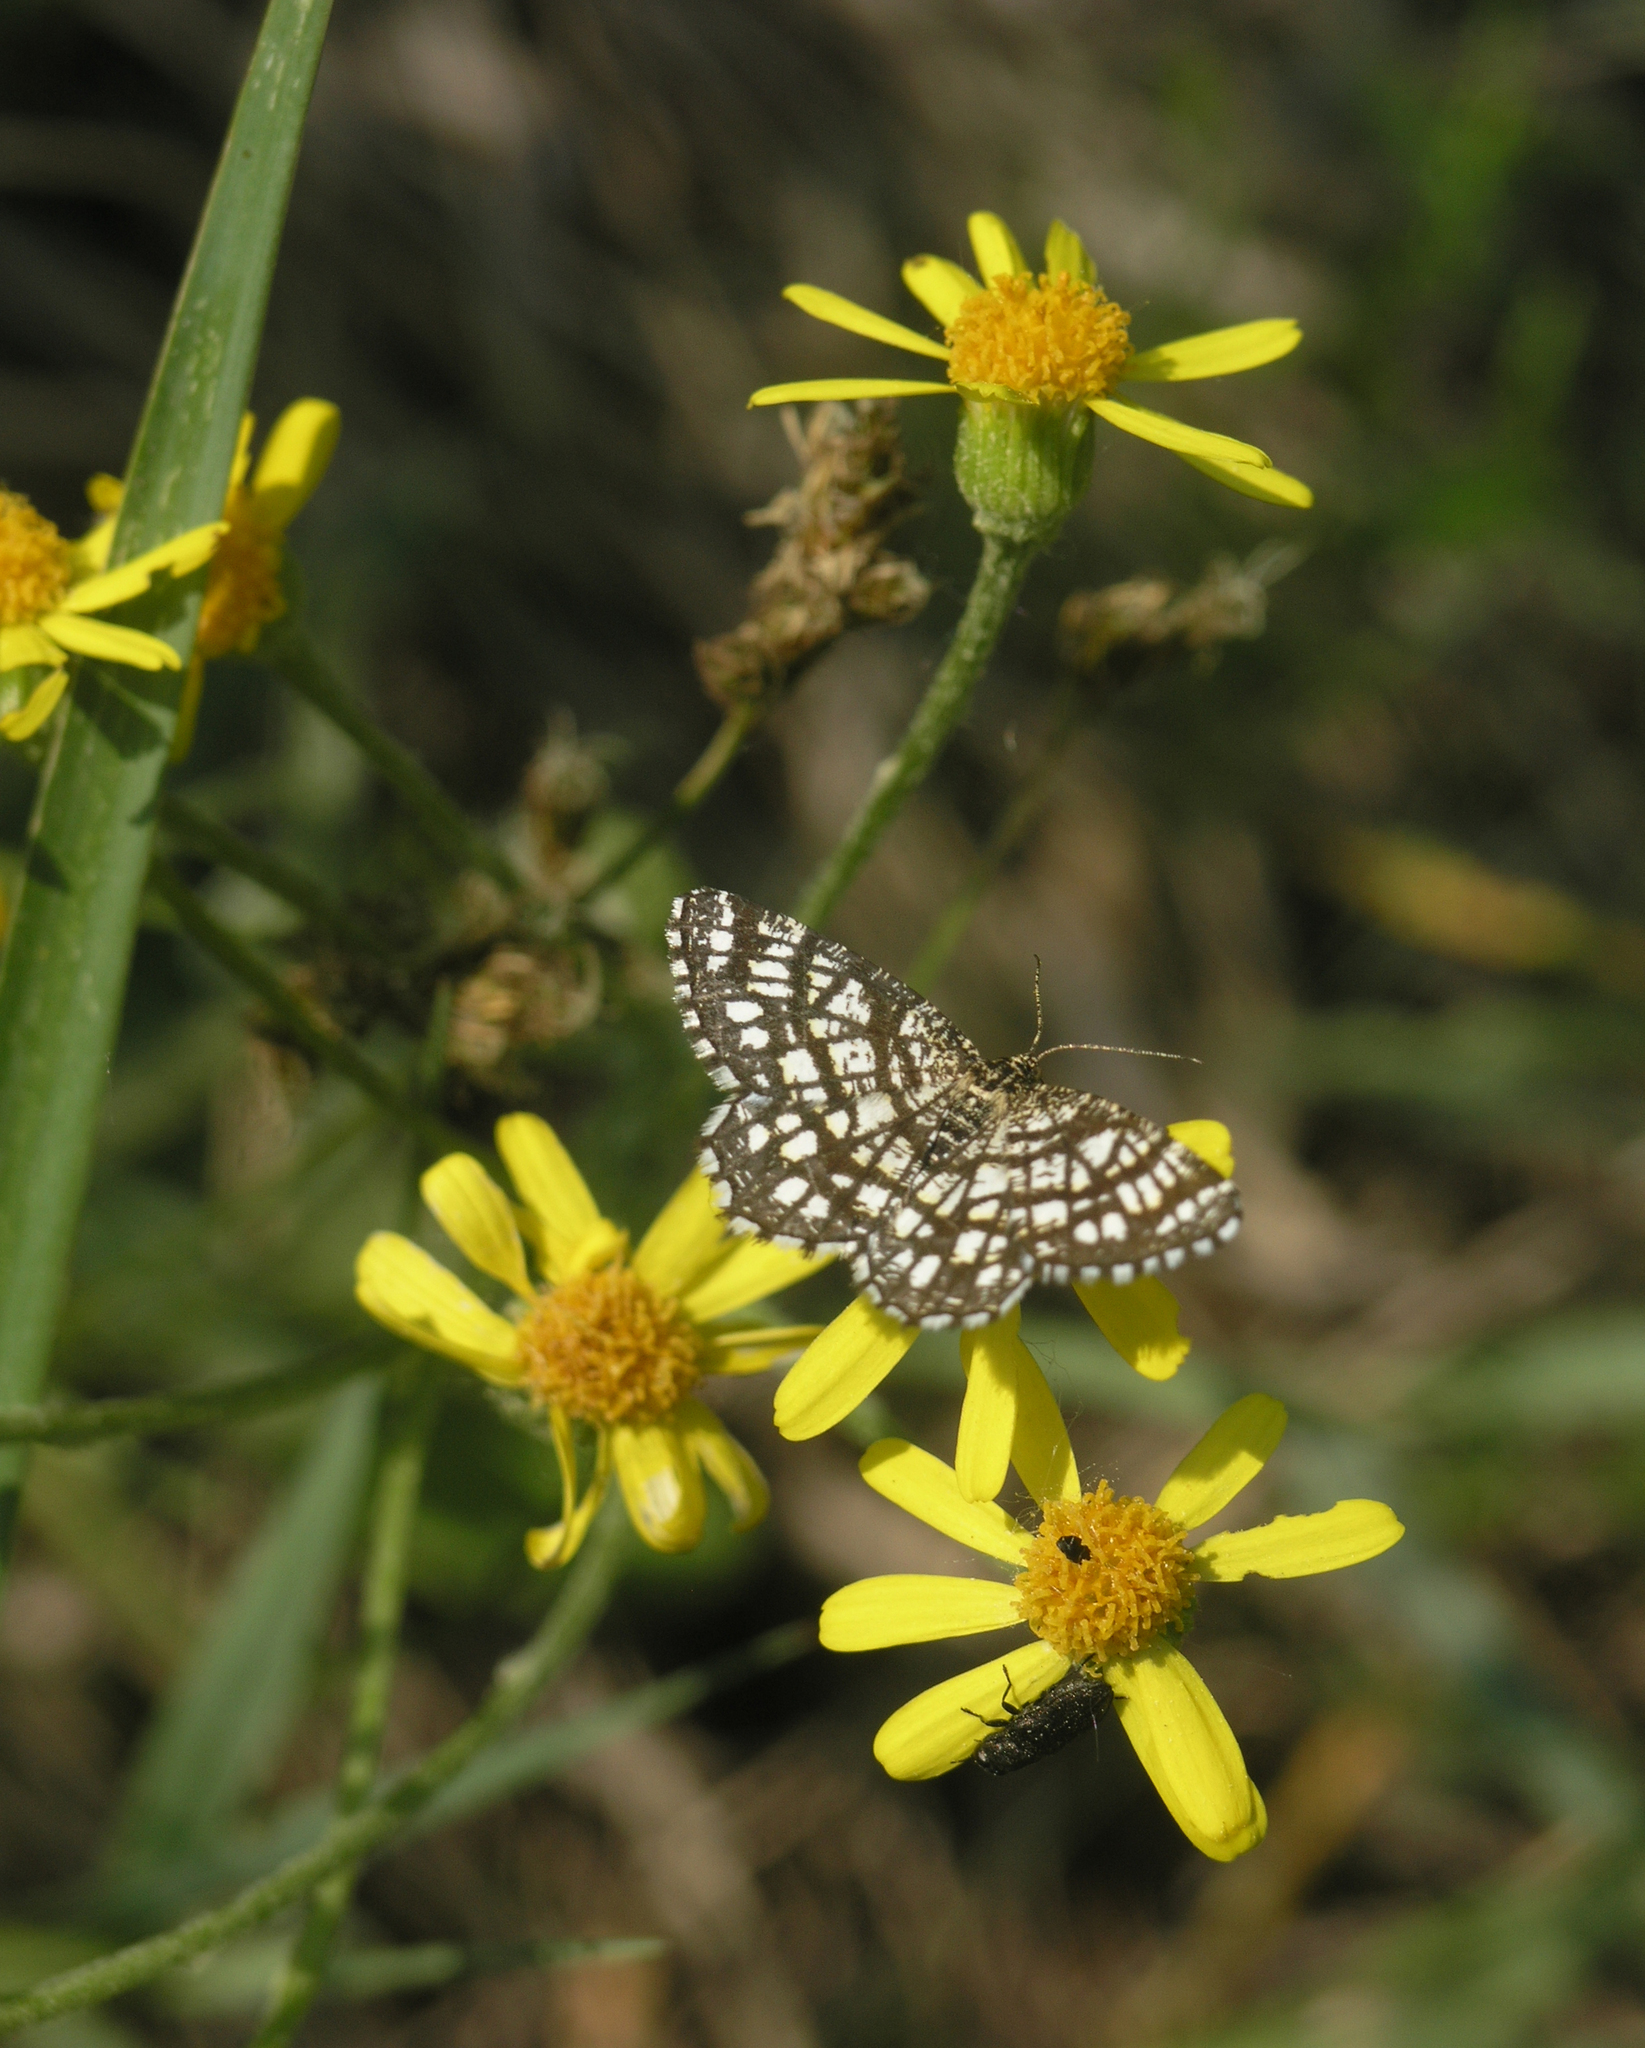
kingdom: Plantae
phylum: Tracheophyta
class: Magnoliopsida
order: Asterales
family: Asteraceae
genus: Tephroseris
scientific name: Tephroseris integrifolia
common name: Field fleawort
